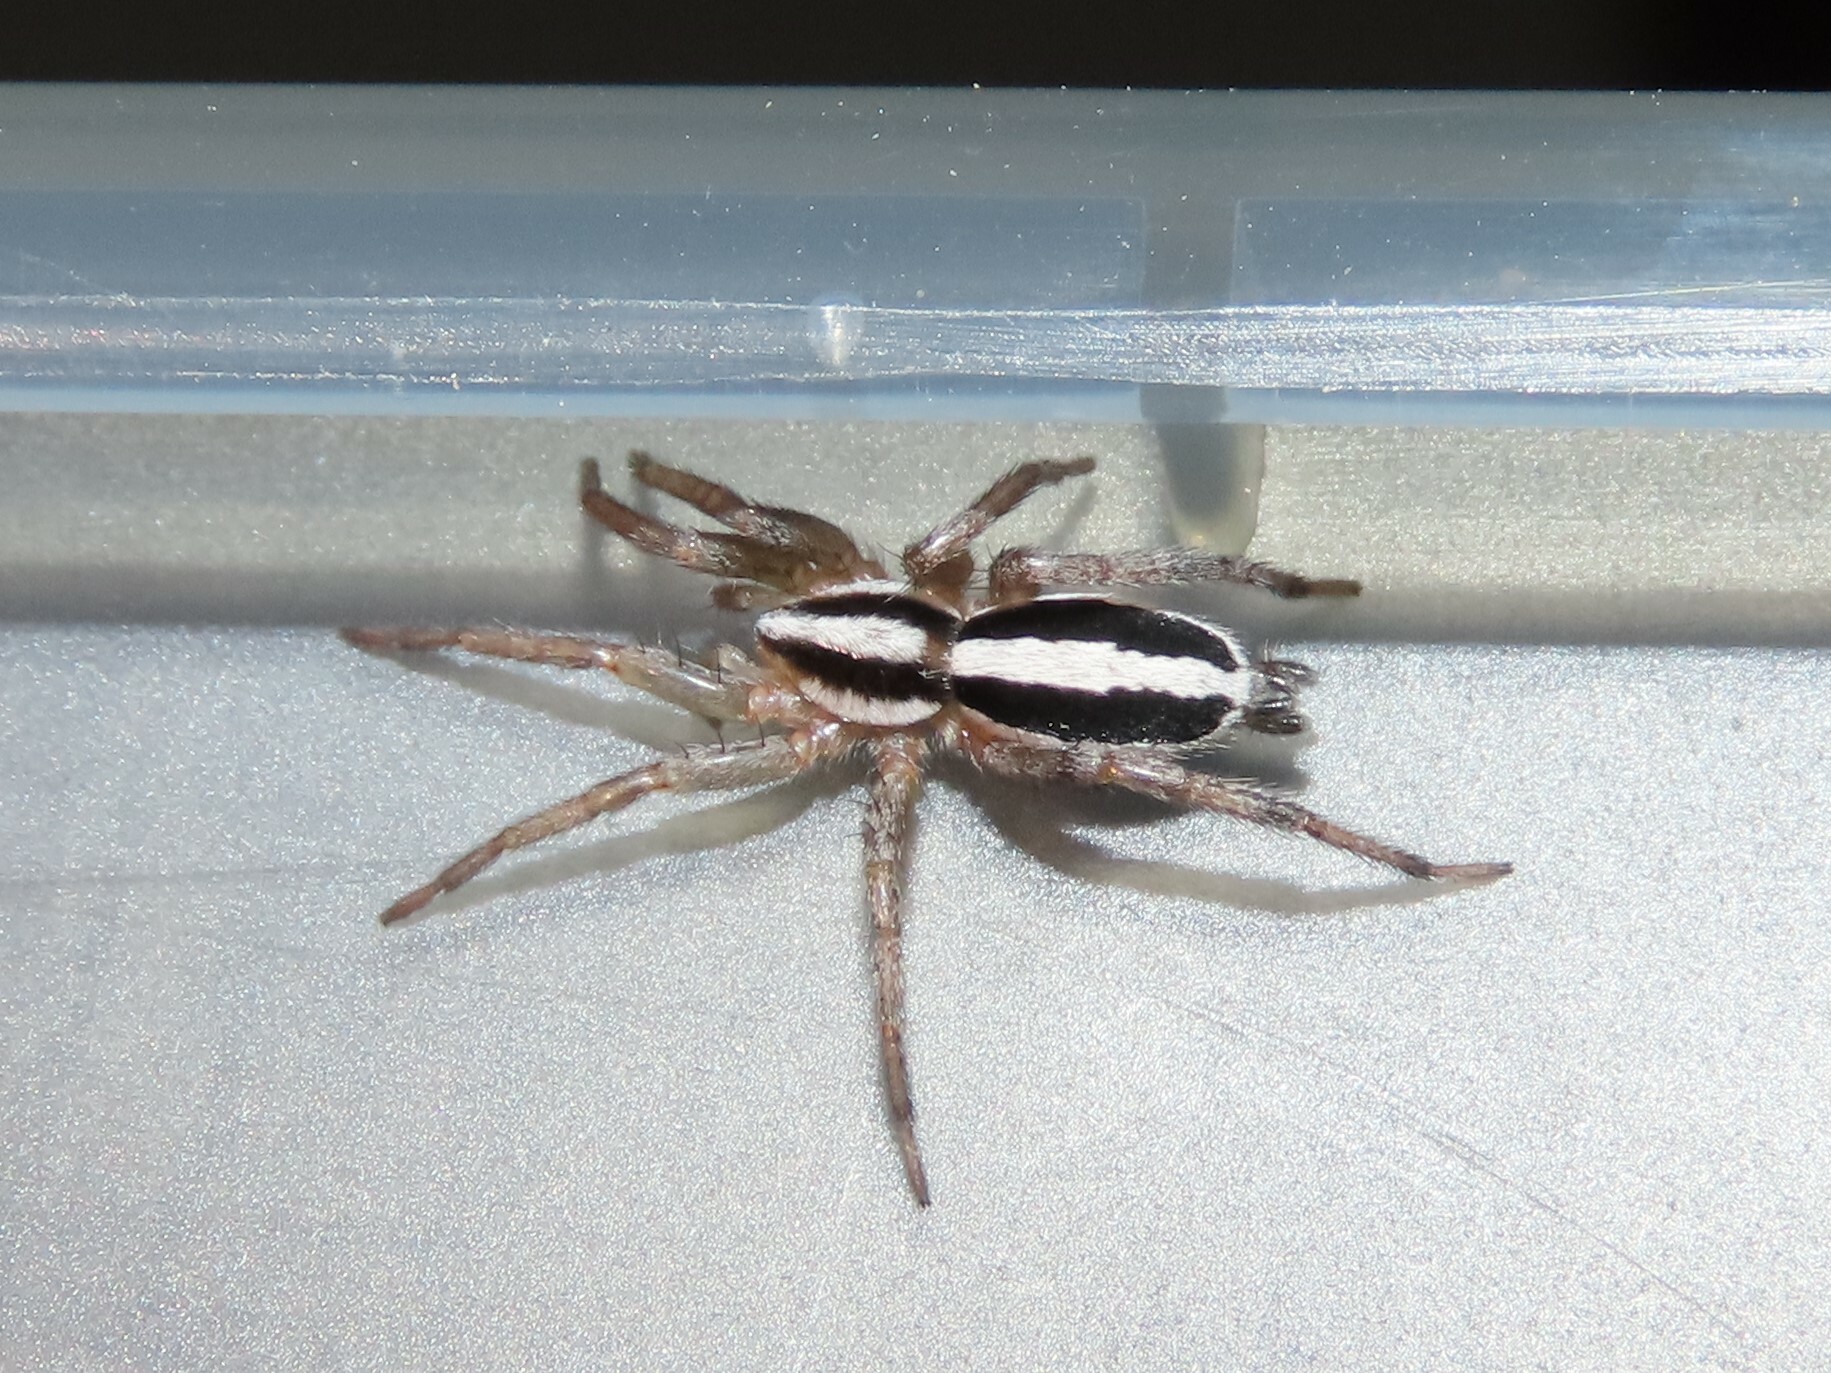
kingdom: Animalia
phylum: Arthropoda
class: Arachnida
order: Araneae
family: Gnaphosidae
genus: Cesonia
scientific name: Cesonia bilineata
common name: Two-lined stealthy ground spider
